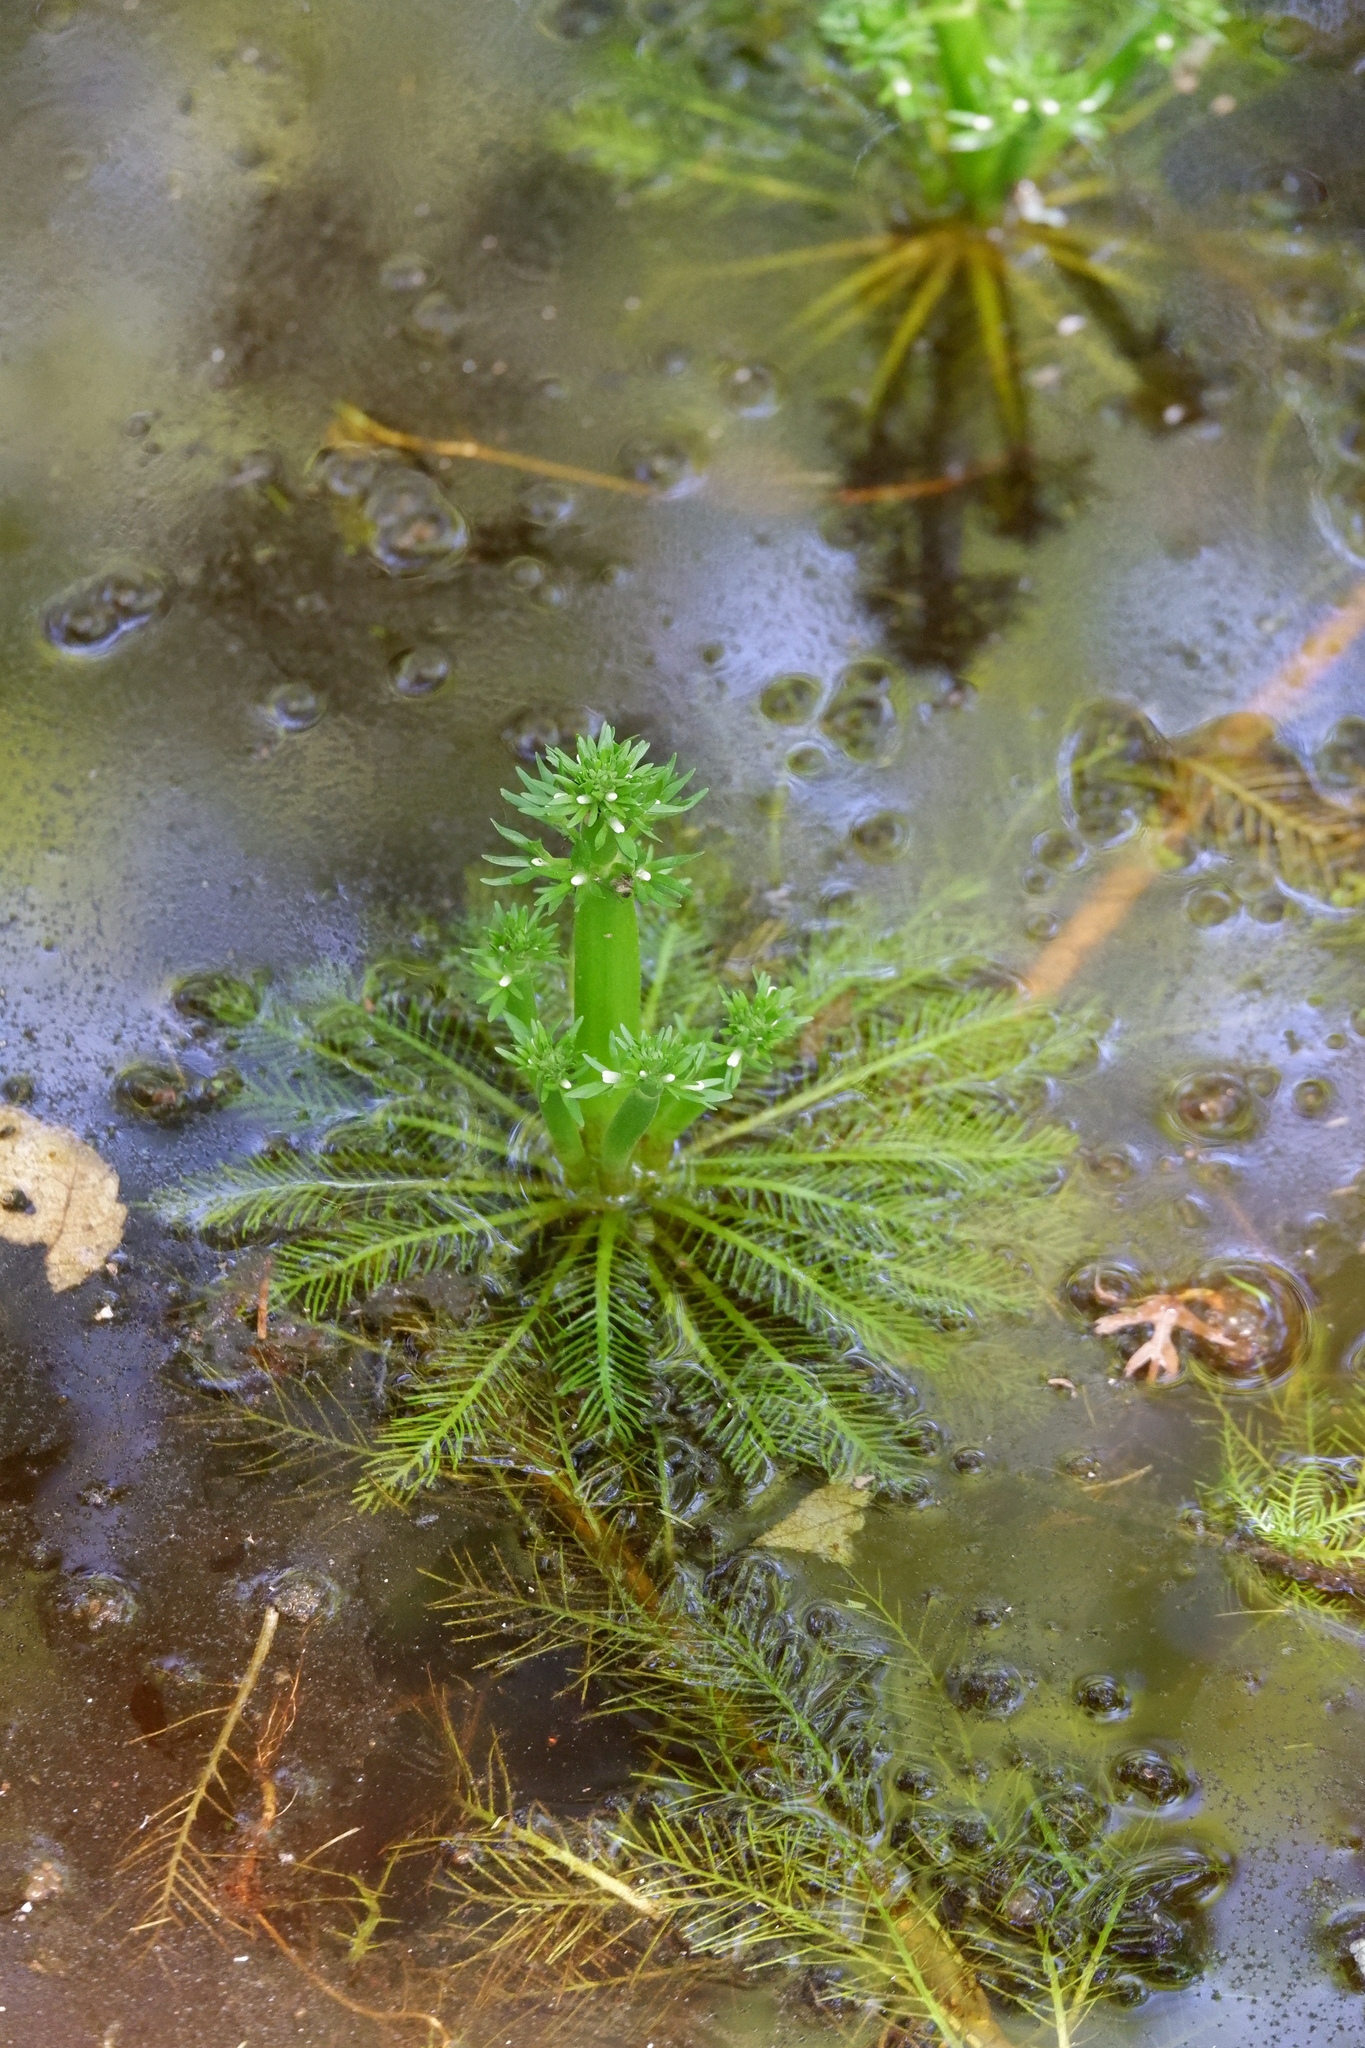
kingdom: Plantae
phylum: Tracheophyta
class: Magnoliopsida
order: Ericales
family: Primulaceae
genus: Hottonia
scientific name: Hottonia inflata
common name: American featherfoil
